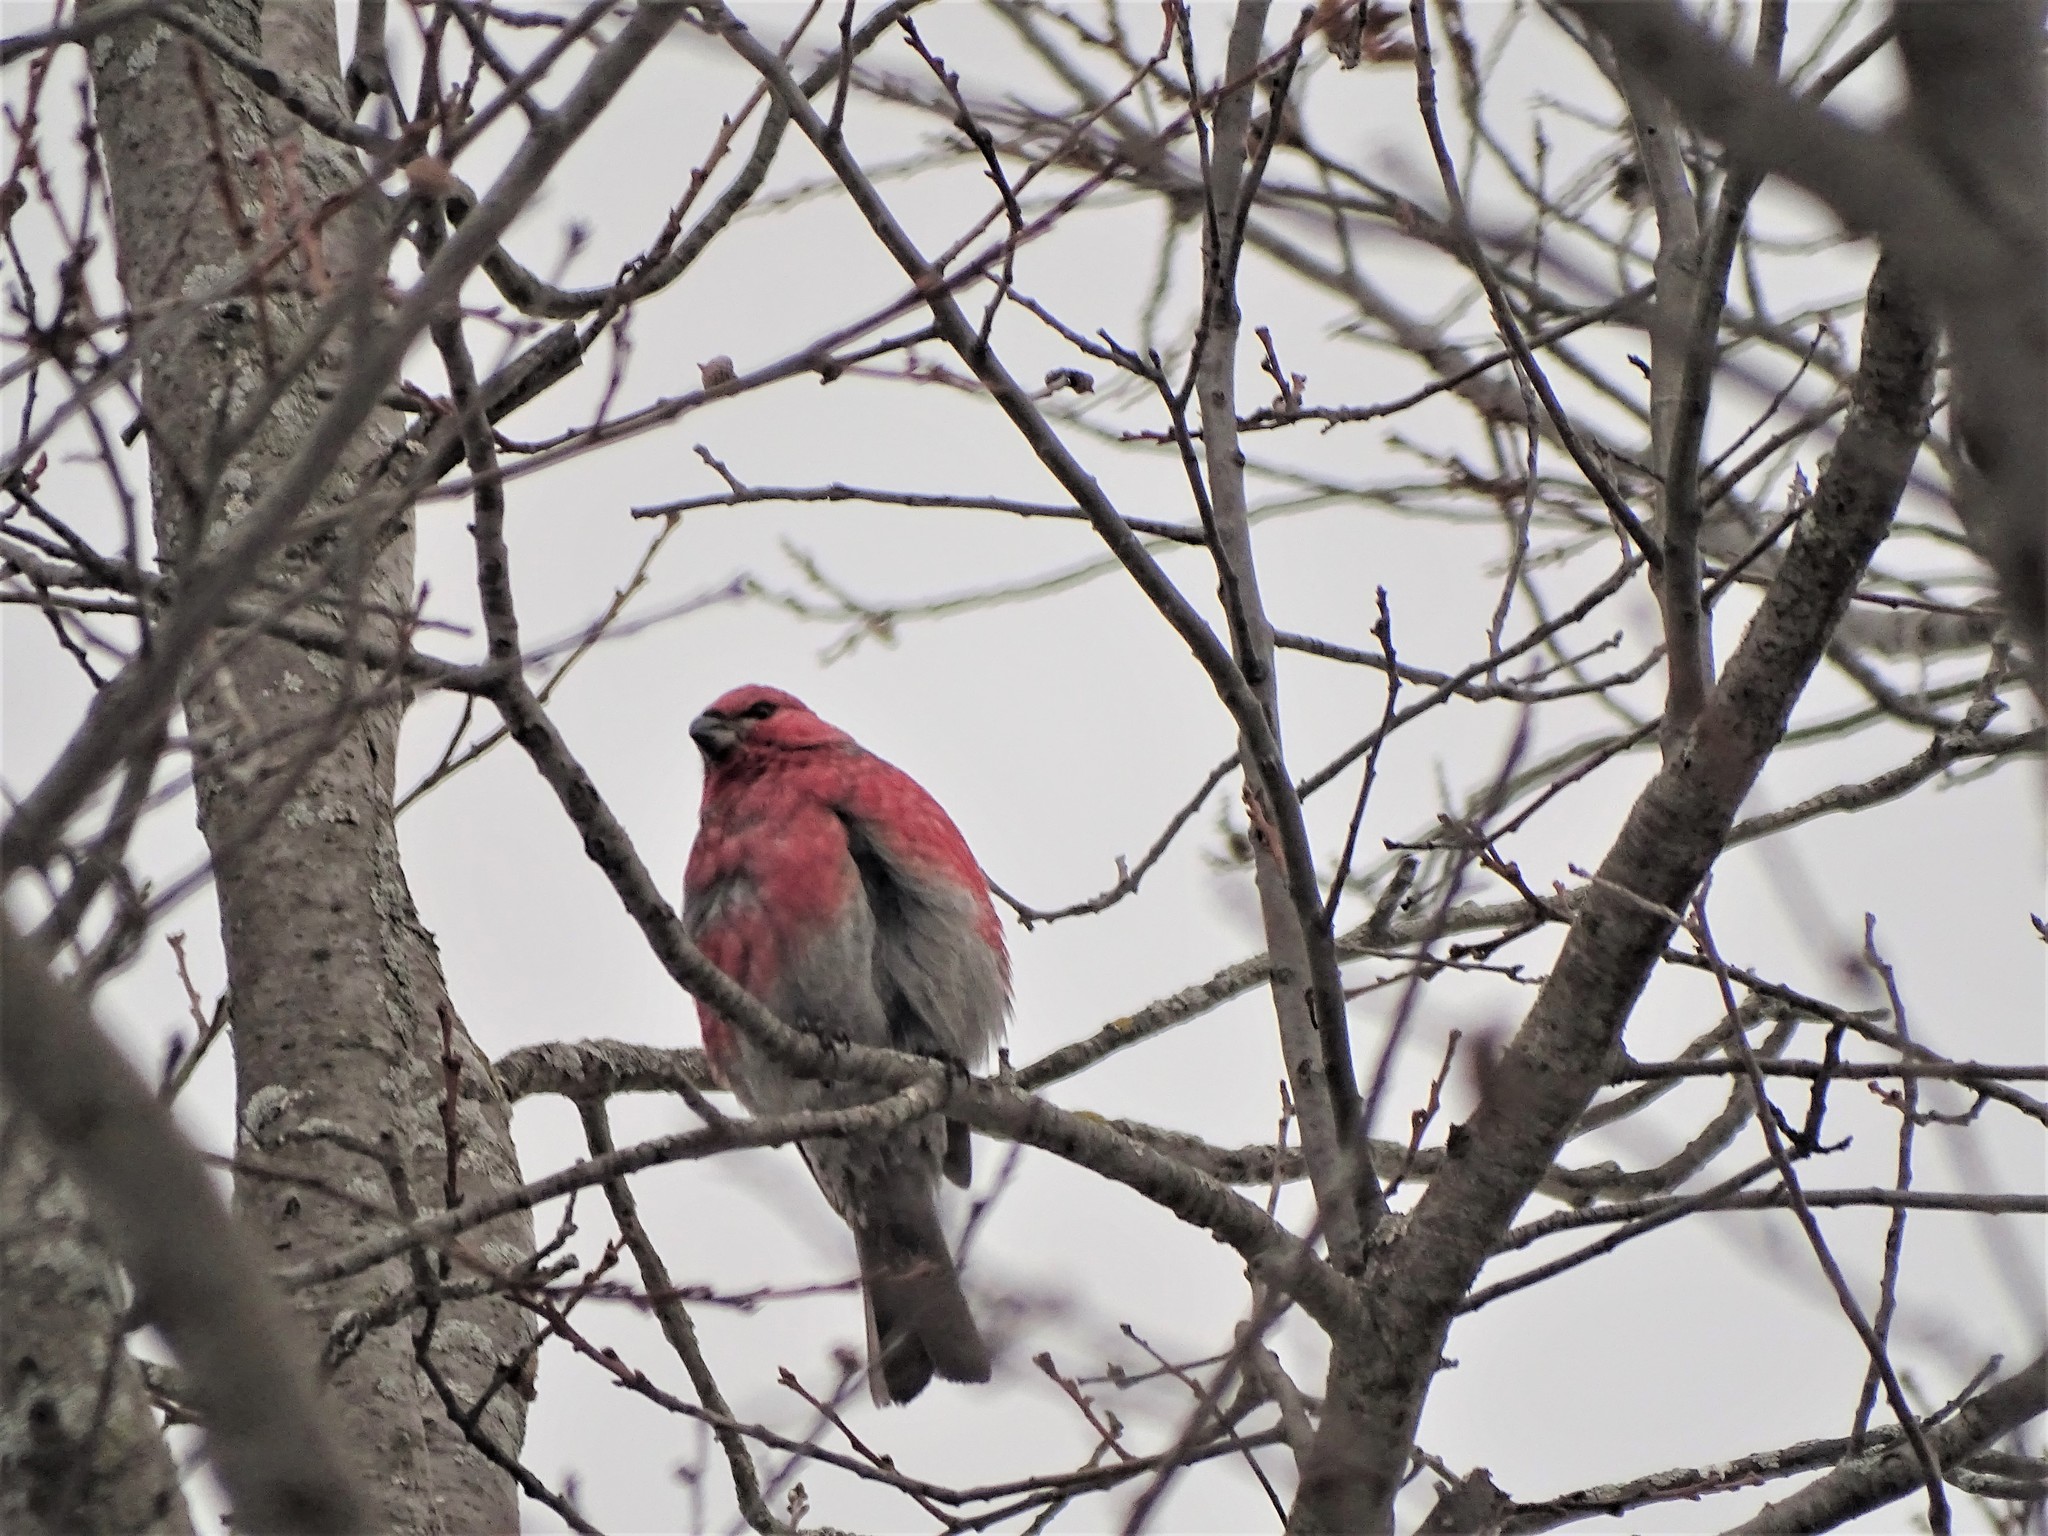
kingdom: Animalia
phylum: Chordata
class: Aves
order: Passeriformes
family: Fringillidae
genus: Pinicola
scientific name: Pinicola enucleator
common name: Pine grosbeak
